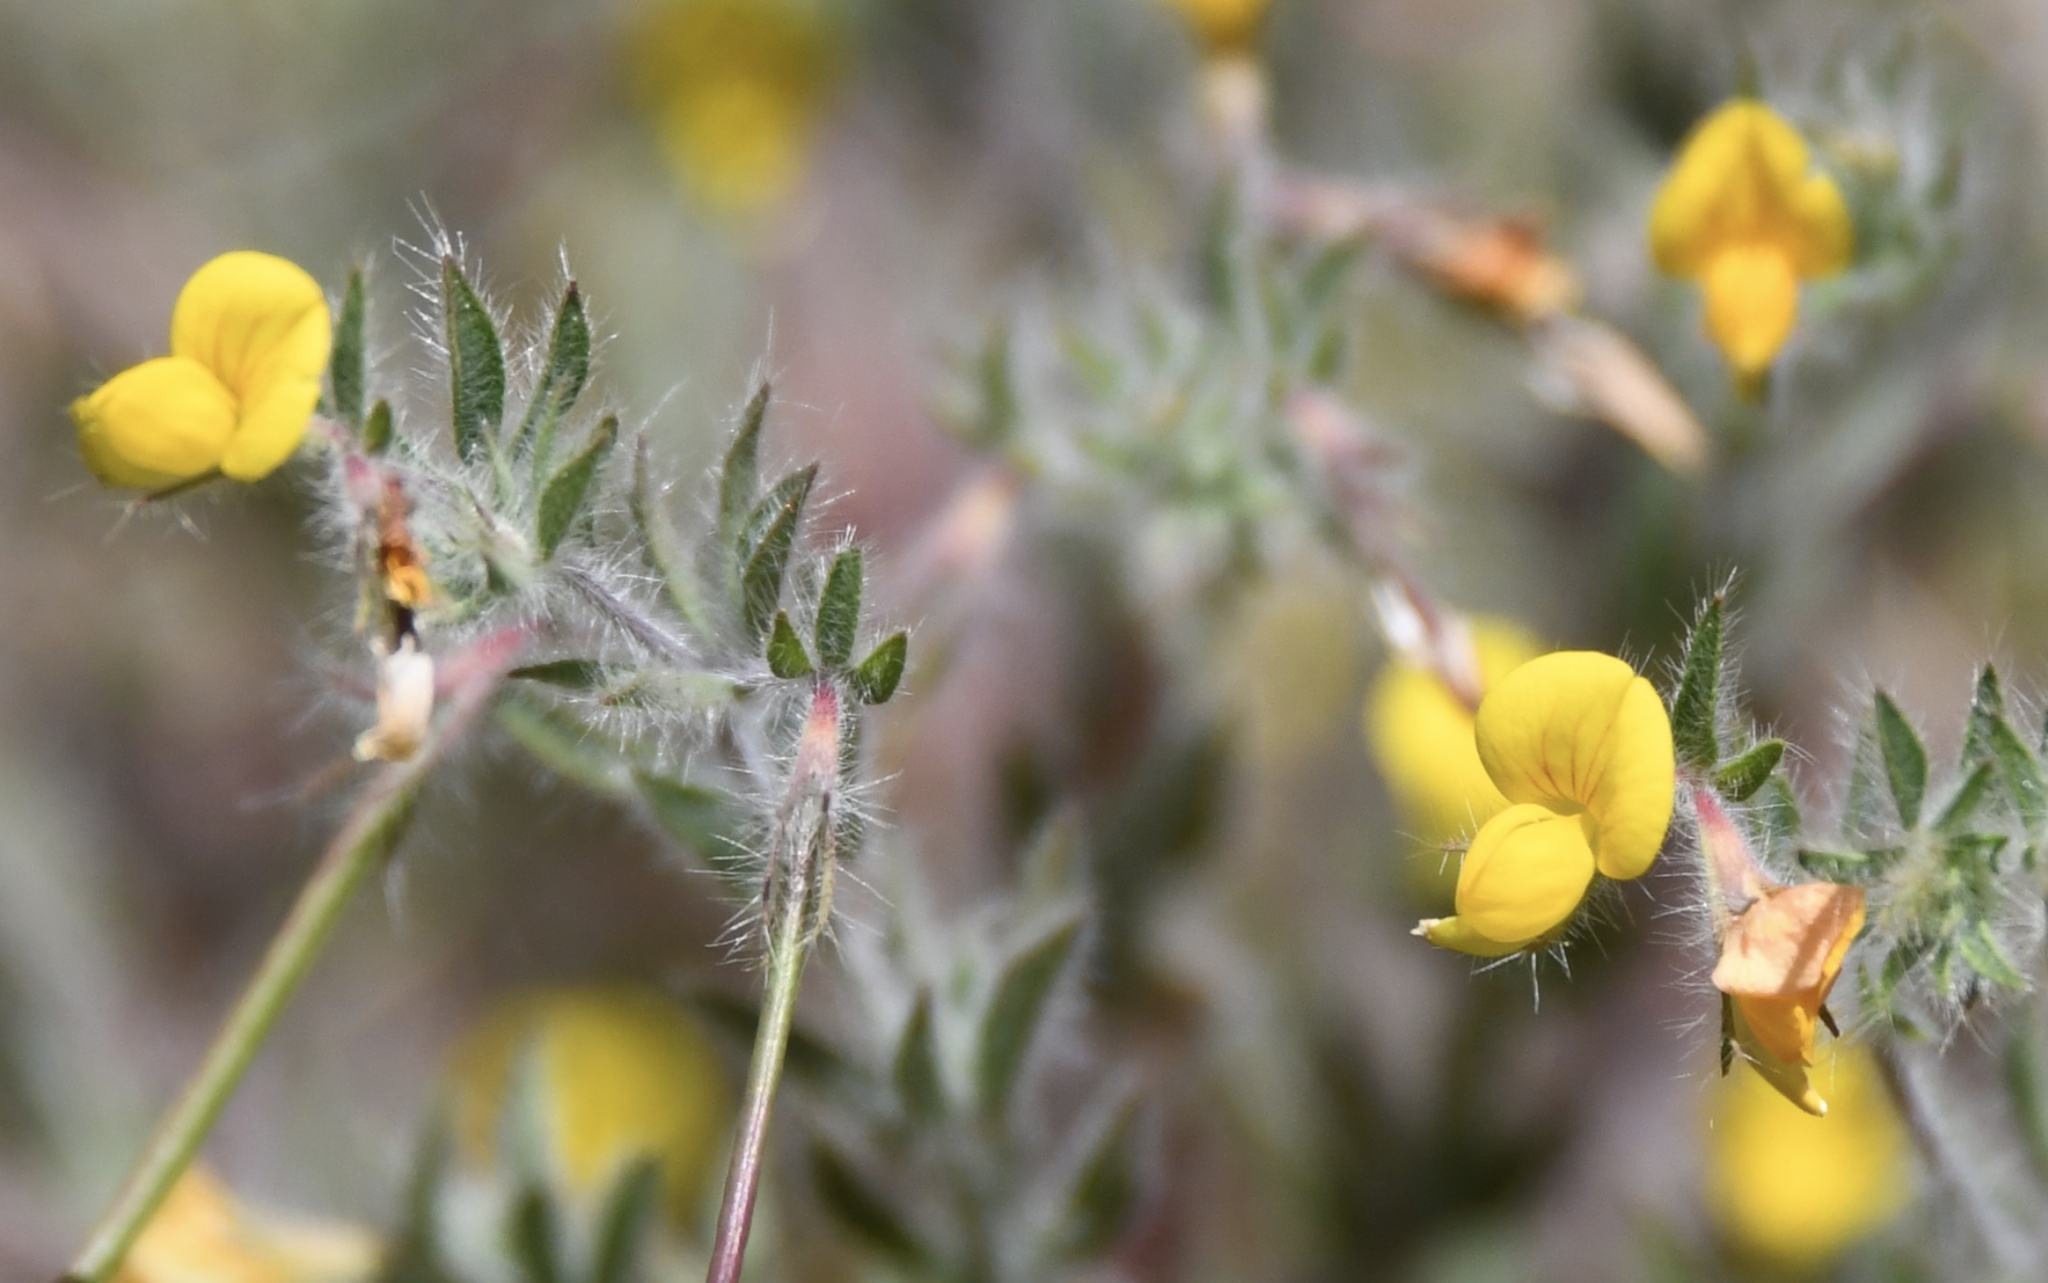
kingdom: Plantae
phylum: Tracheophyta
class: Magnoliopsida
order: Fabales
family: Fabaceae
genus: Lotus
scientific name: Lotus angustissimus
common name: Slender bird's-foot trefoil
